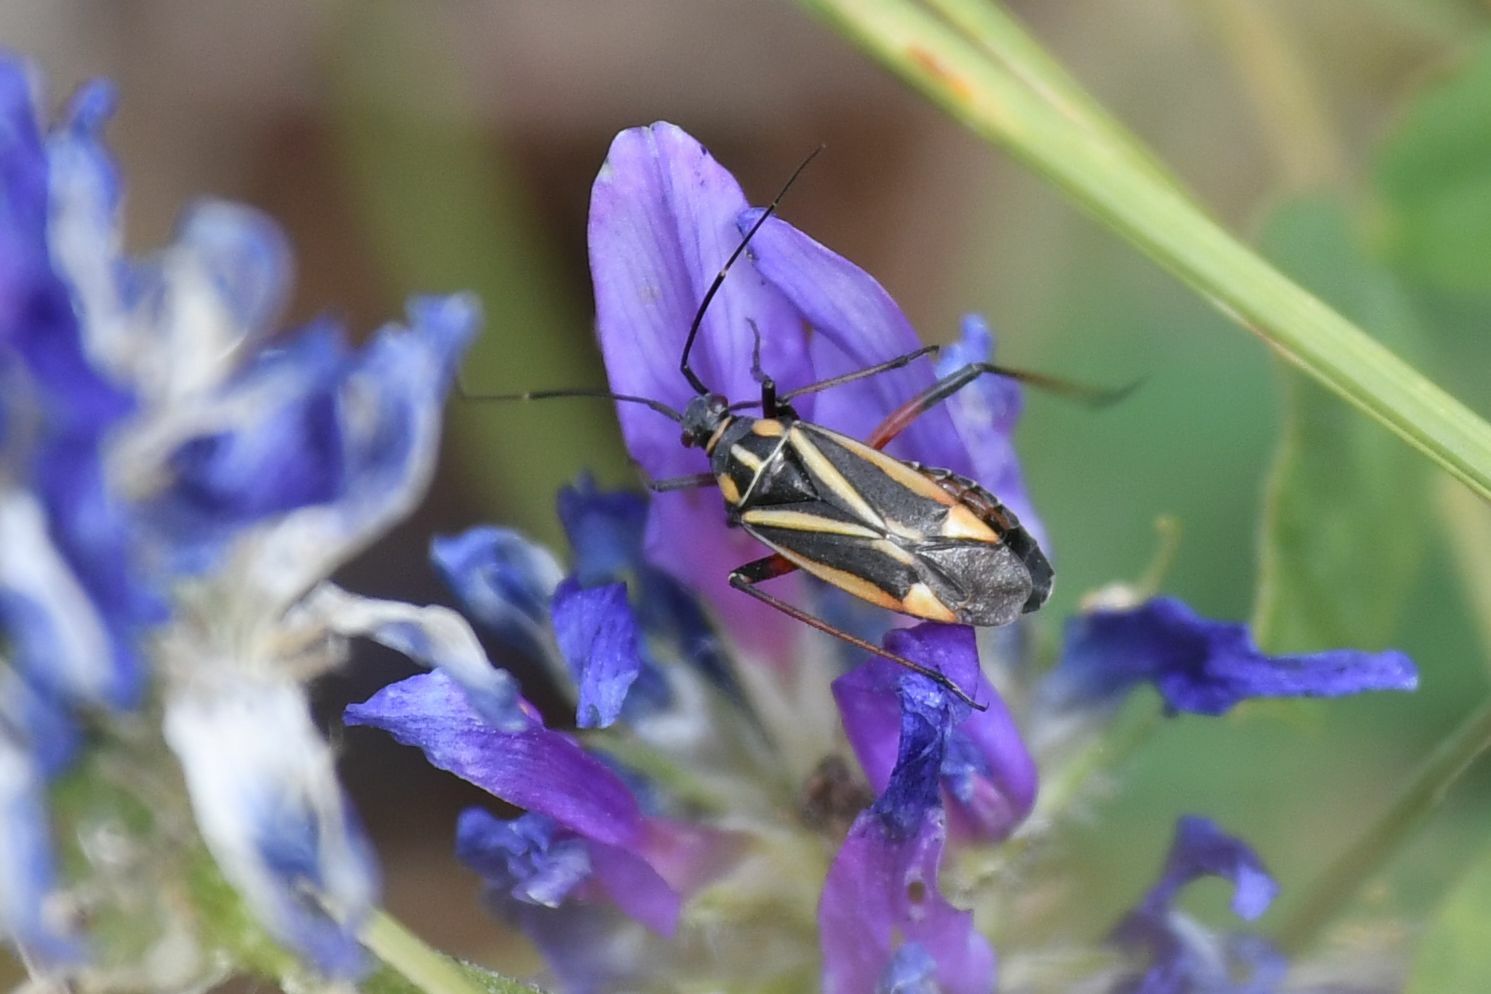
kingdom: Animalia
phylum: Arthropoda
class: Insecta
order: Hemiptera
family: Miridae
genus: Hadrodemus
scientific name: Hadrodemus m-flavum
